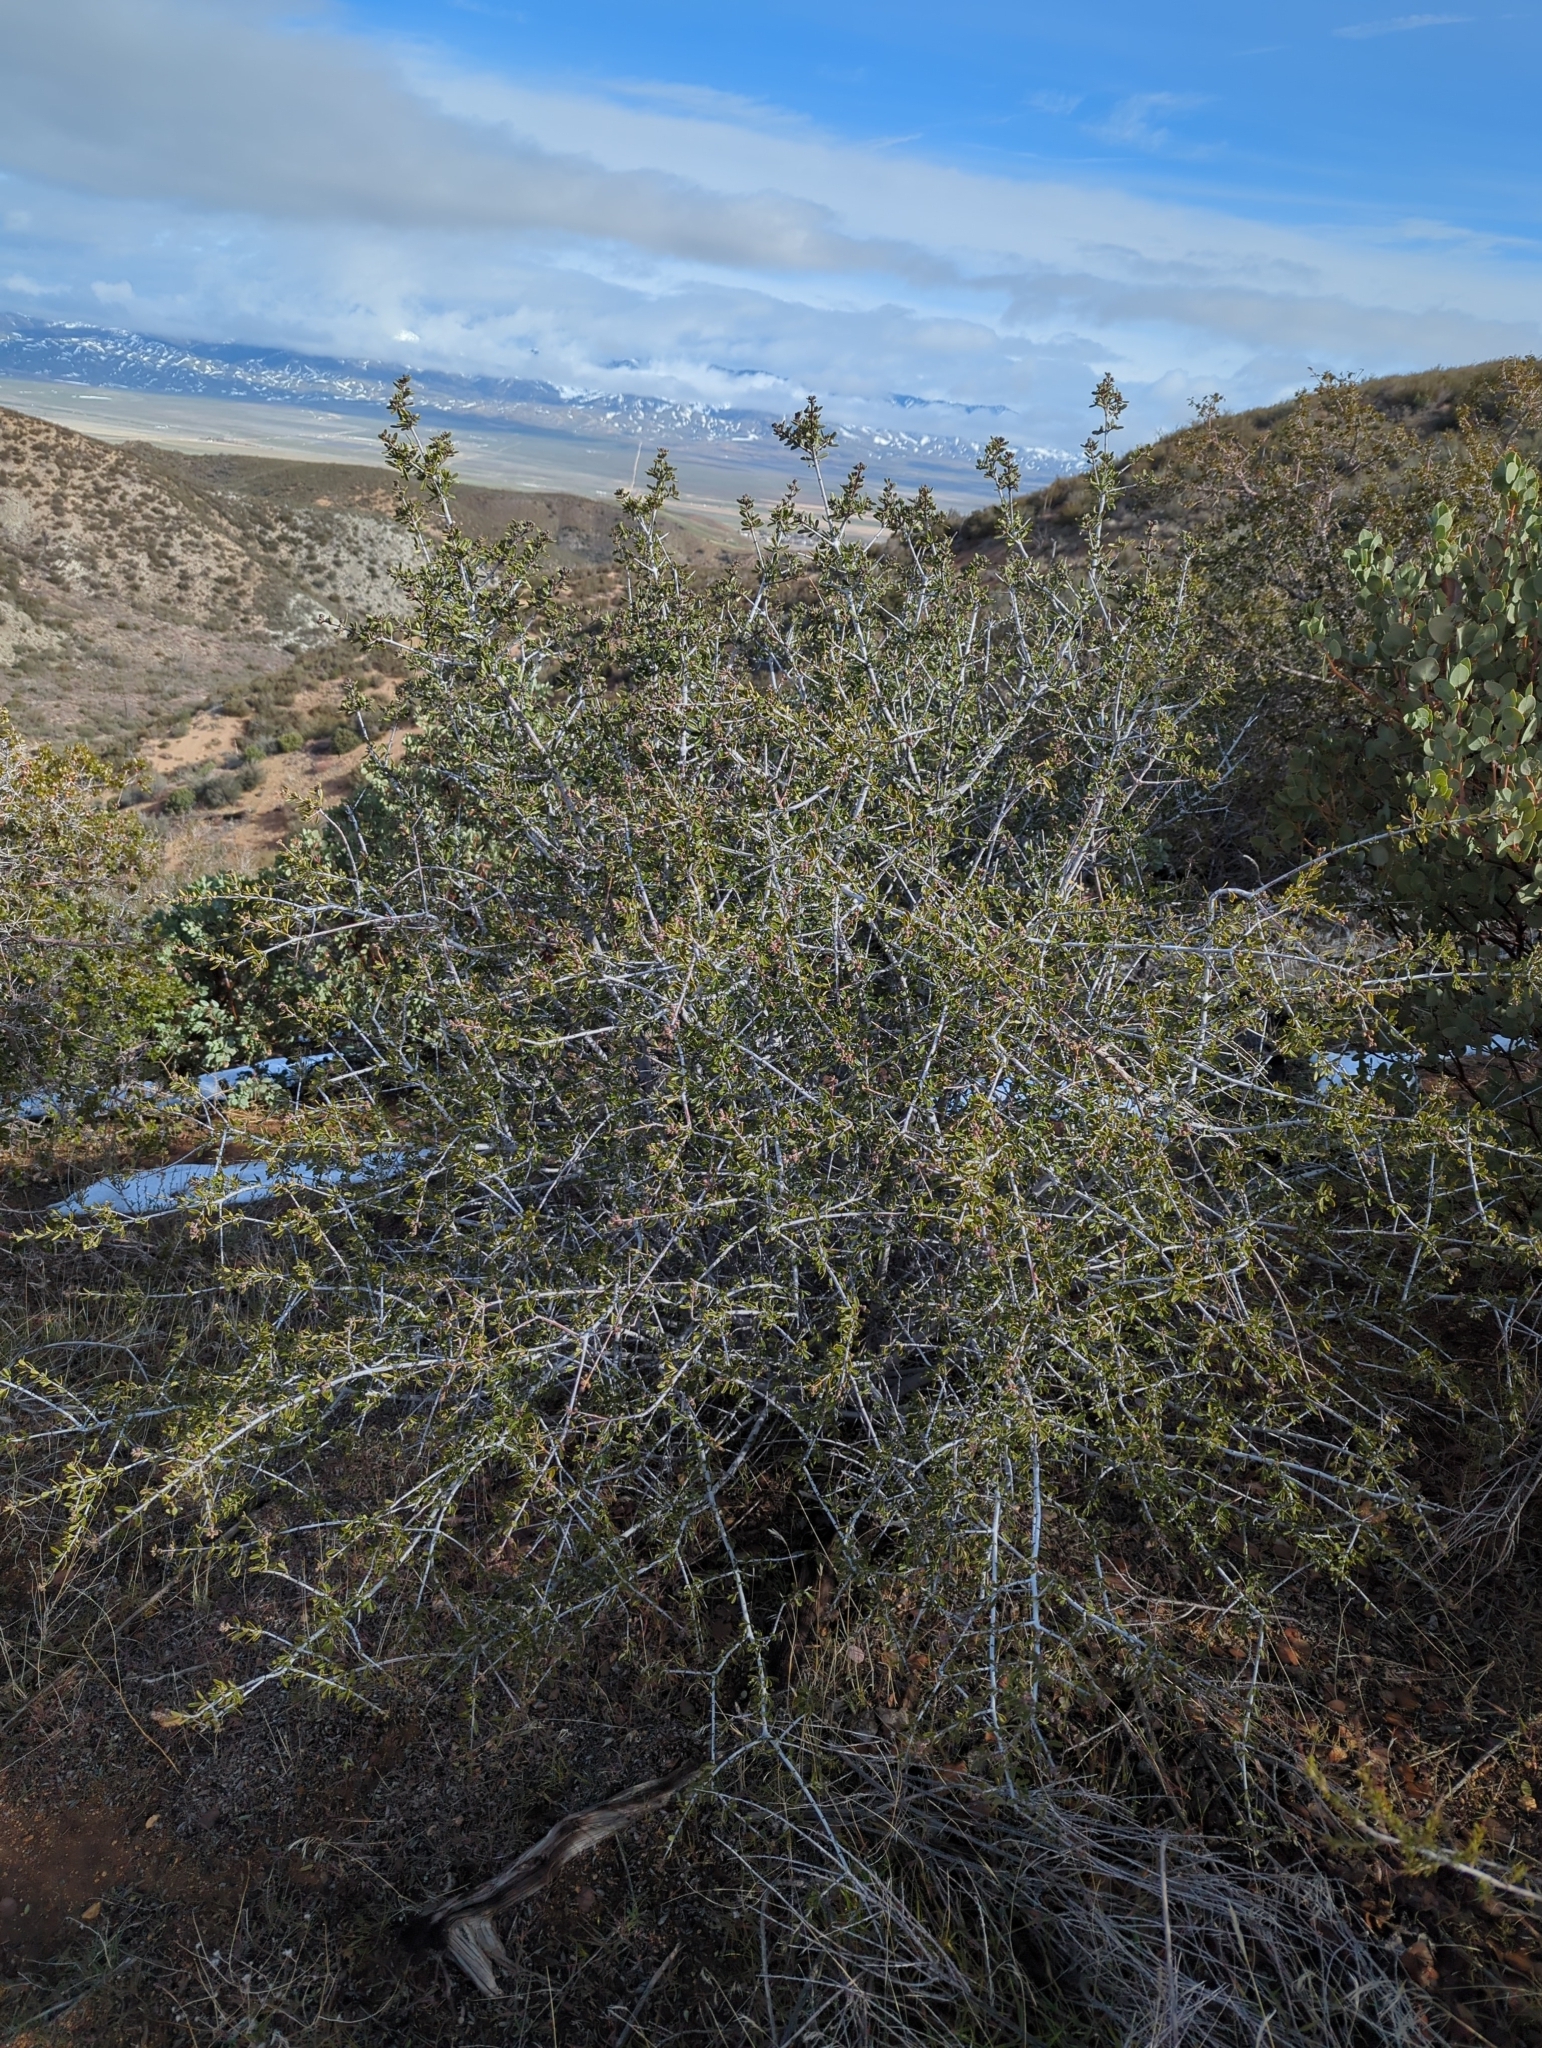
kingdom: Plantae
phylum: Tracheophyta
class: Magnoliopsida
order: Rosales
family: Rhamnaceae
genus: Ceanothus
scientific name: Ceanothus cuneatus
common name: Cuneate ceanothus
